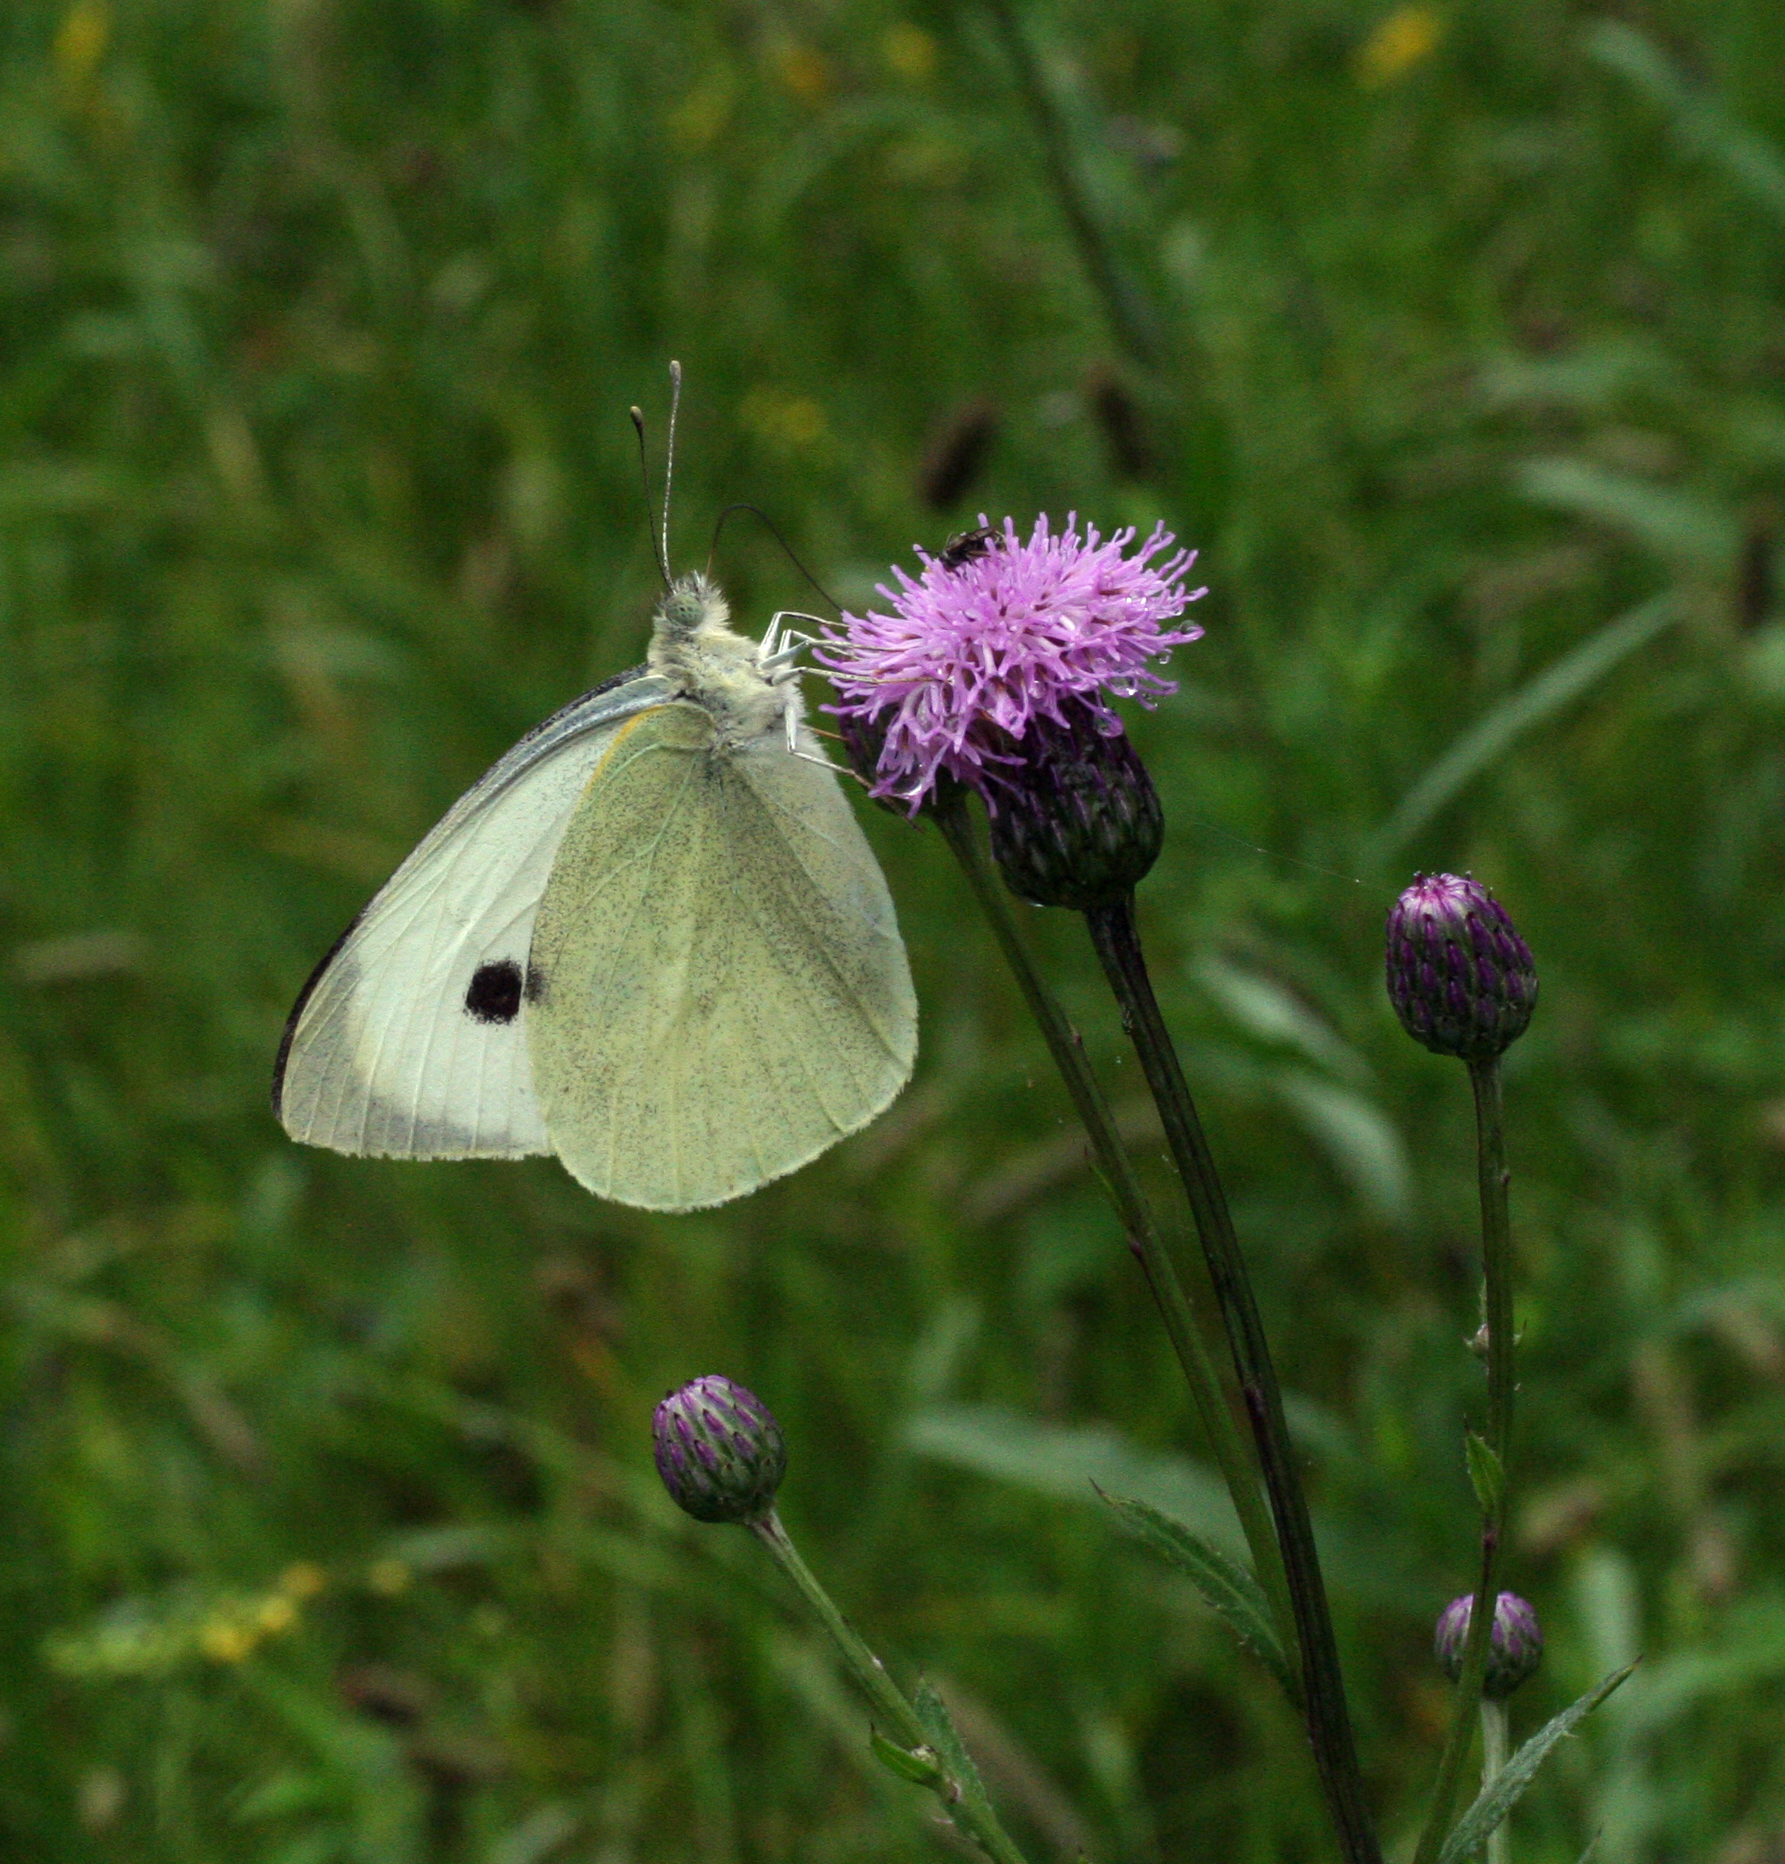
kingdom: Animalia
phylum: Arthropoda
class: Insecta
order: Lepidoptera
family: Pieridae
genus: Pieris
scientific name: Pieris brassicae
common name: Large white
